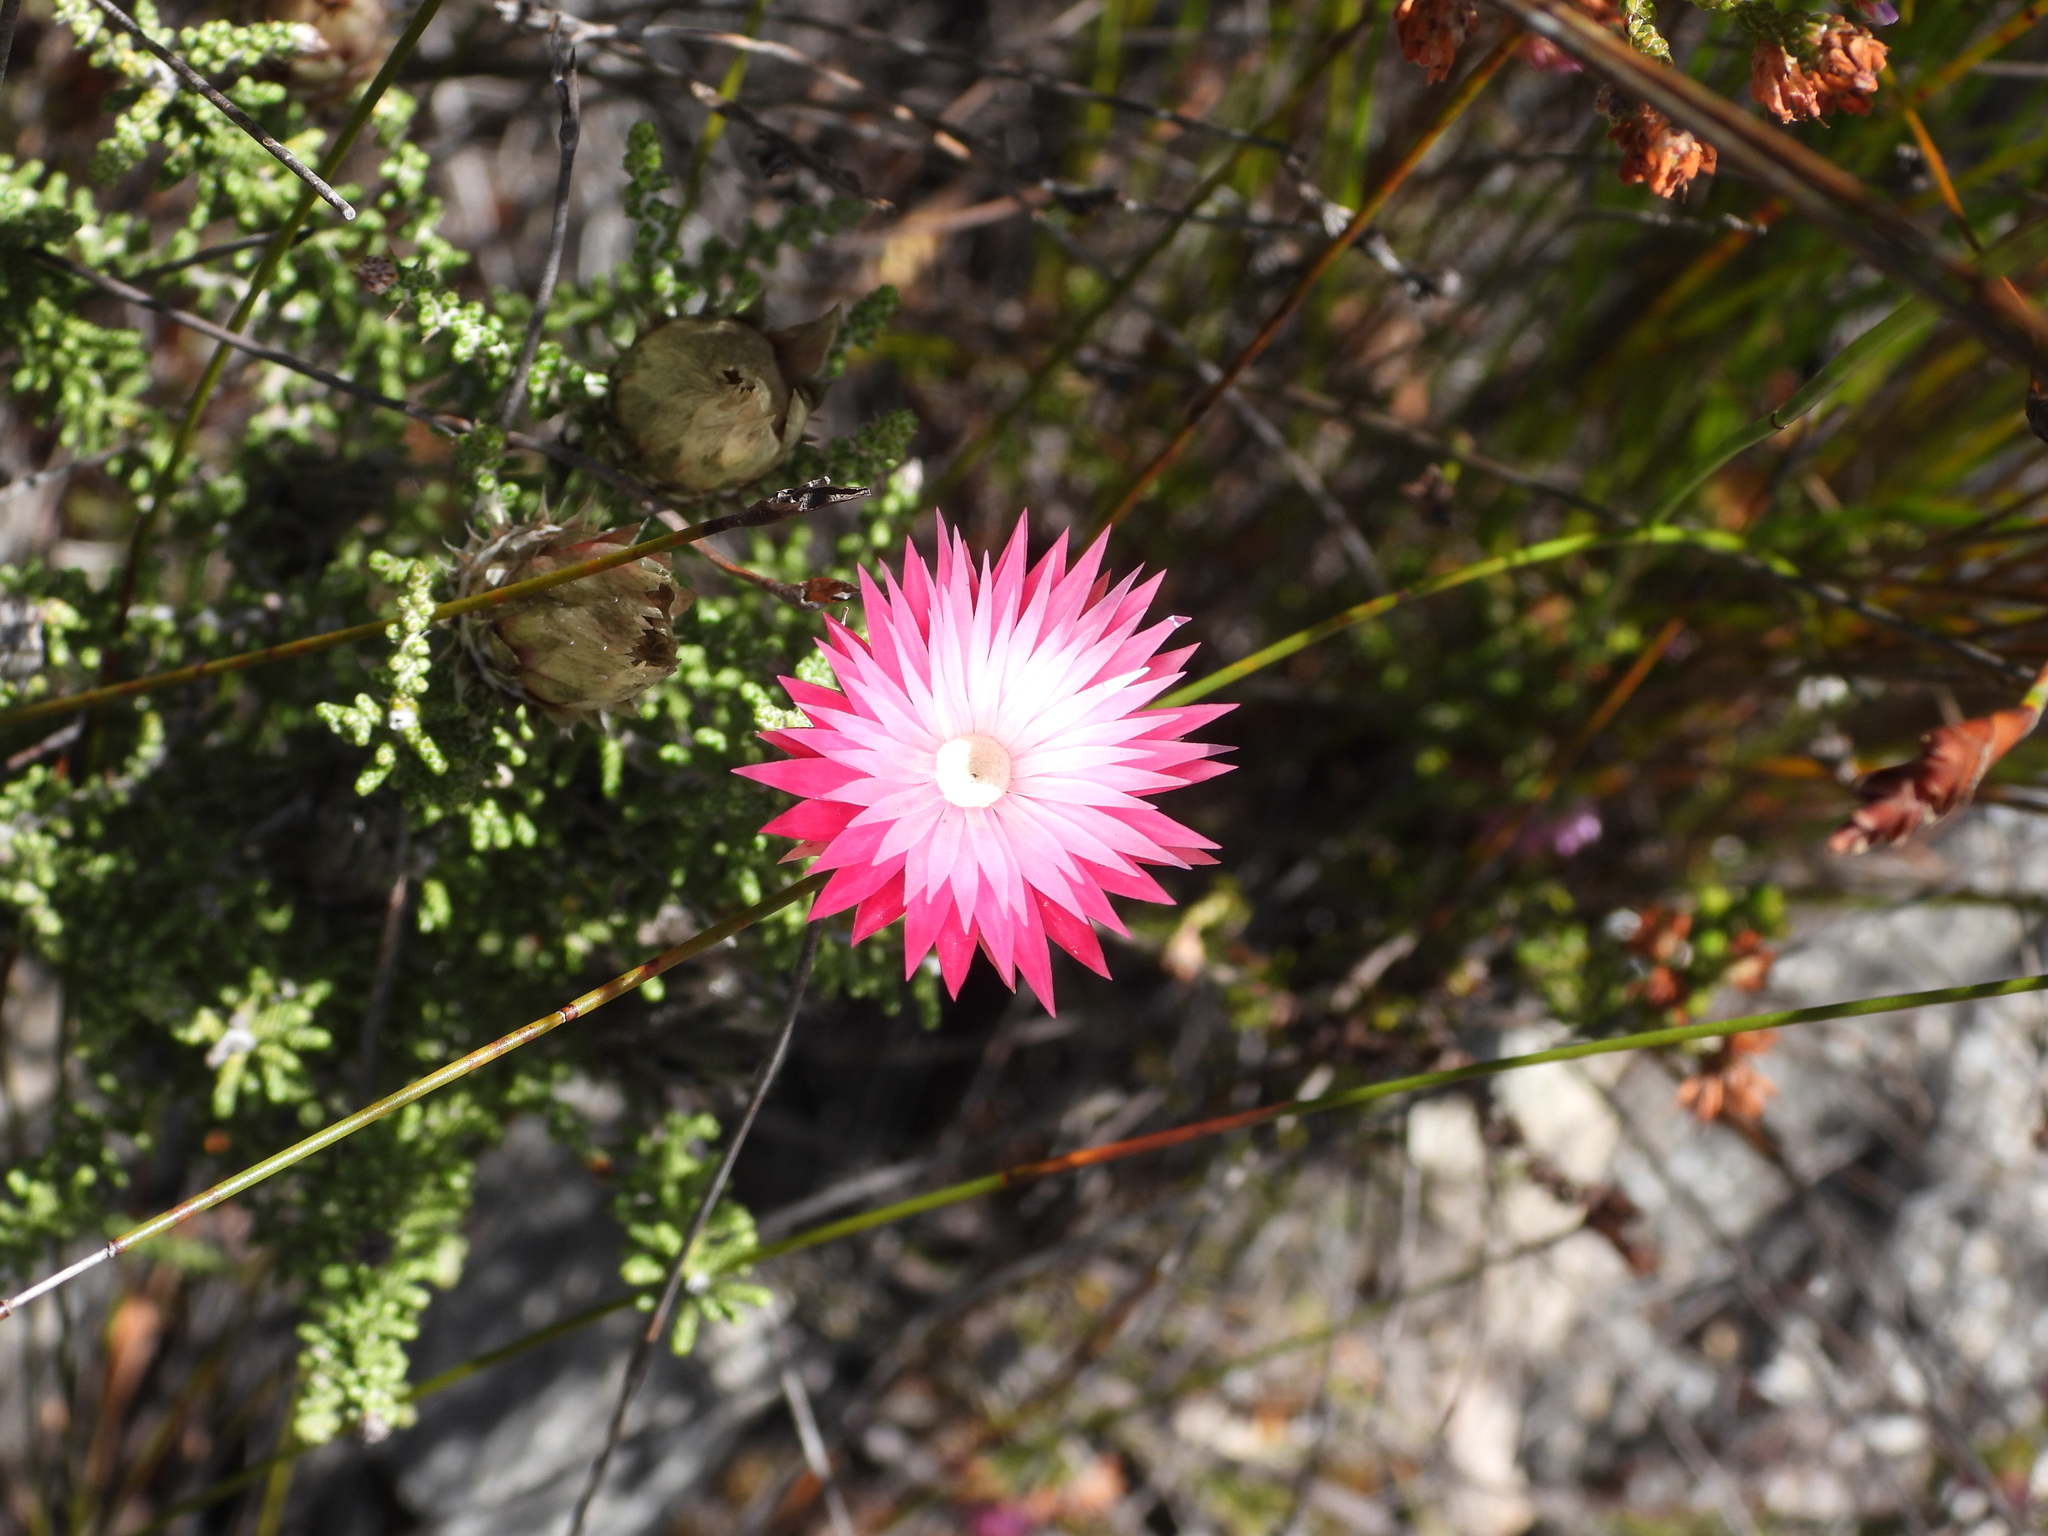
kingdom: Plantae
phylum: Tracheophyta
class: Magnoliopsida
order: Asterales
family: Asteraceae
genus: Phaenocoma
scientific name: Phaenocoma prolifera
